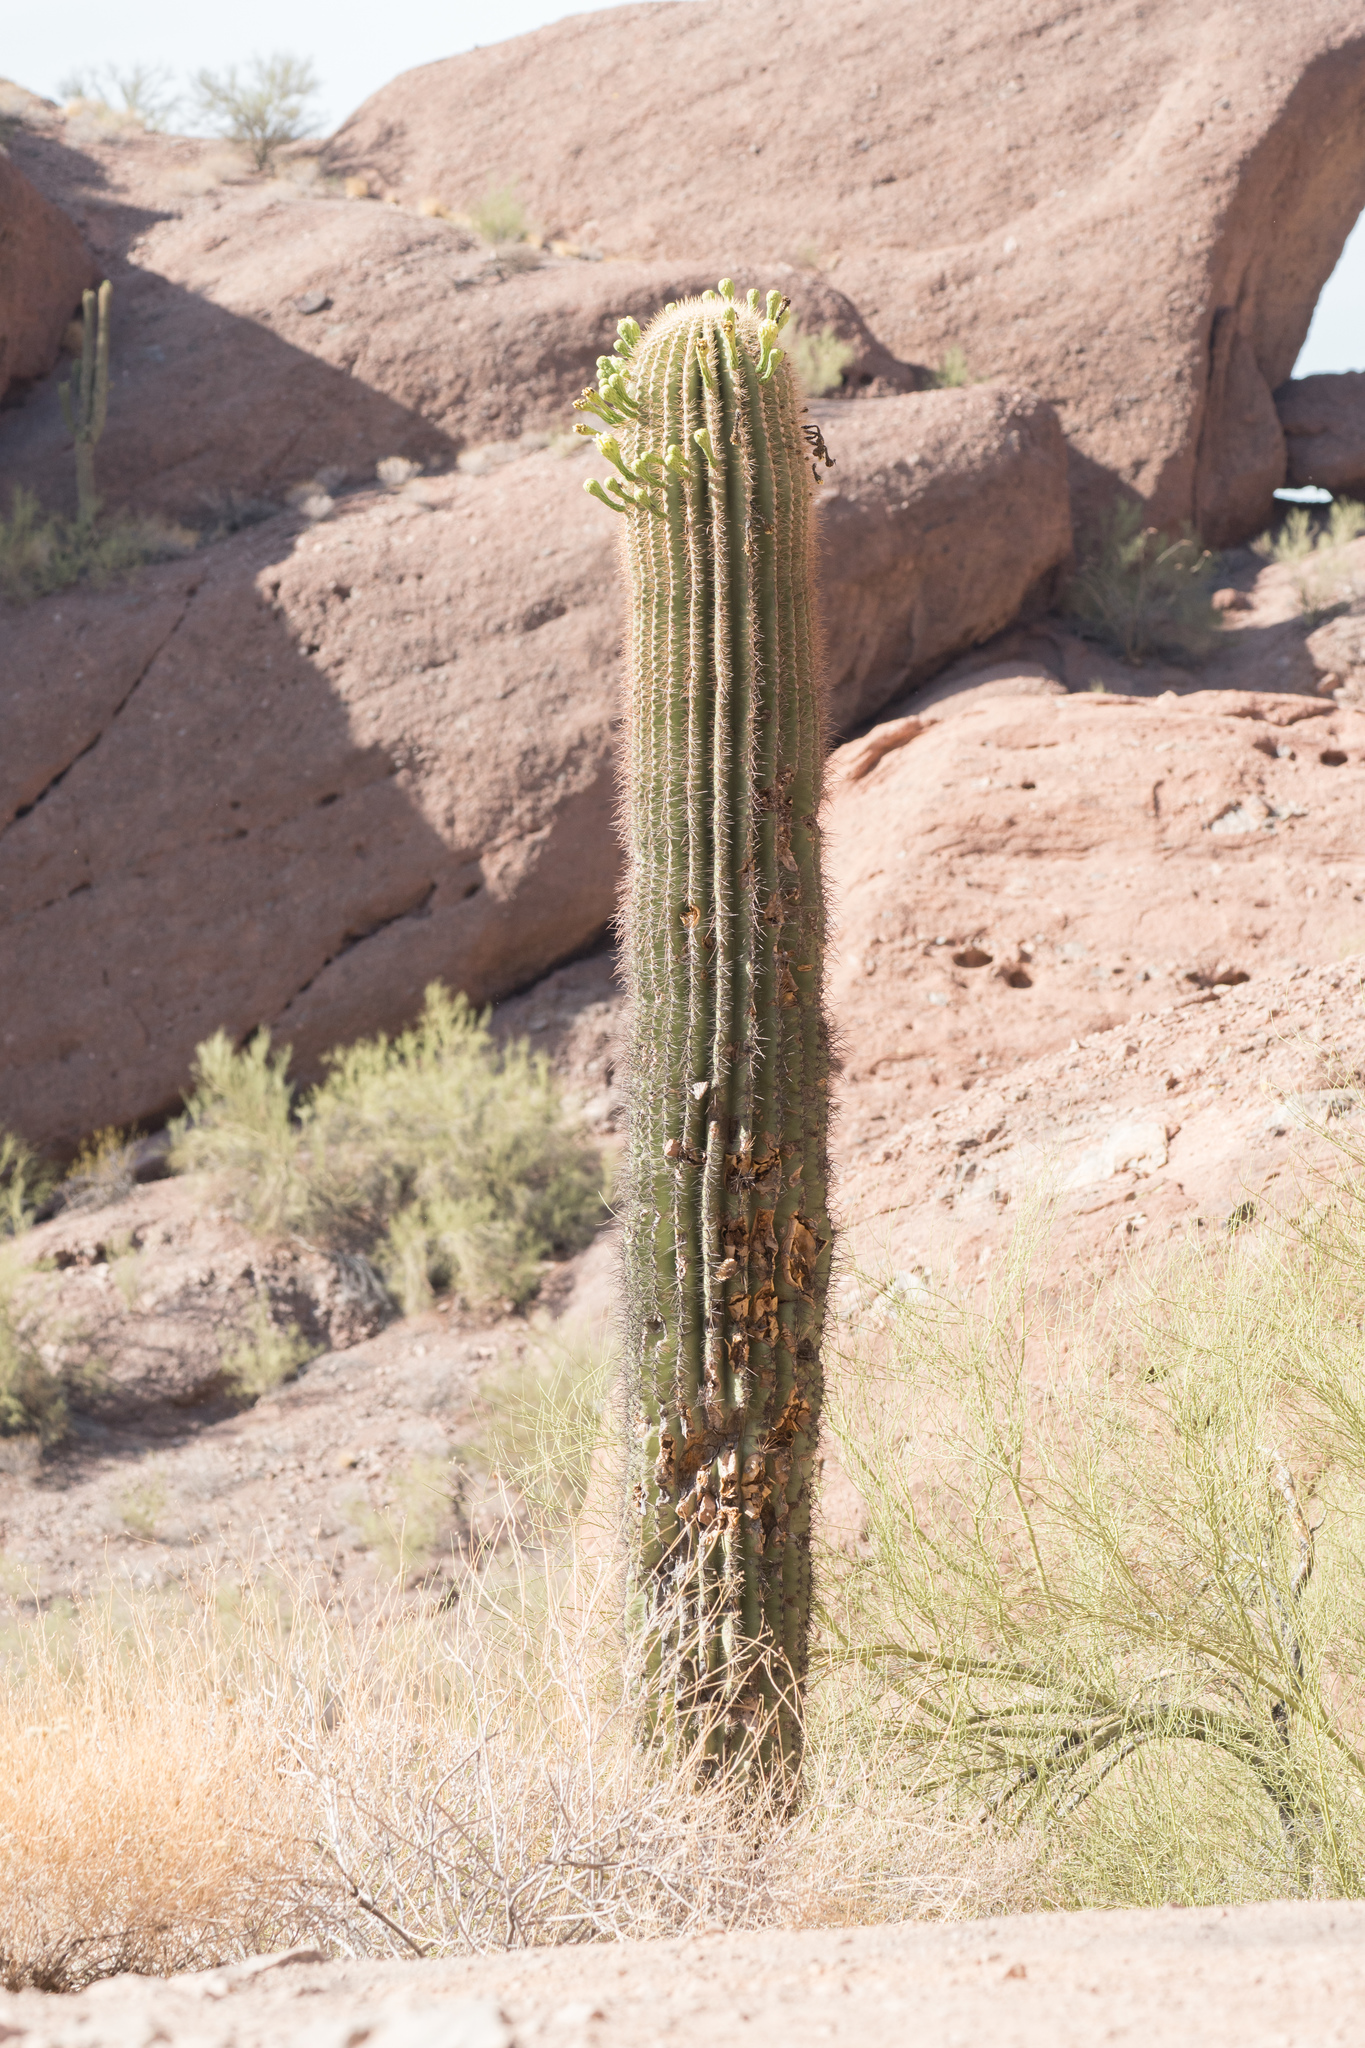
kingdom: Plantae
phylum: Tracheophyta
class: Magnoliopsida
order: Caryophyllales
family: Cactaceae
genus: Carnegiea
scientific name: Carnegiea gigantea
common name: Saguaro
